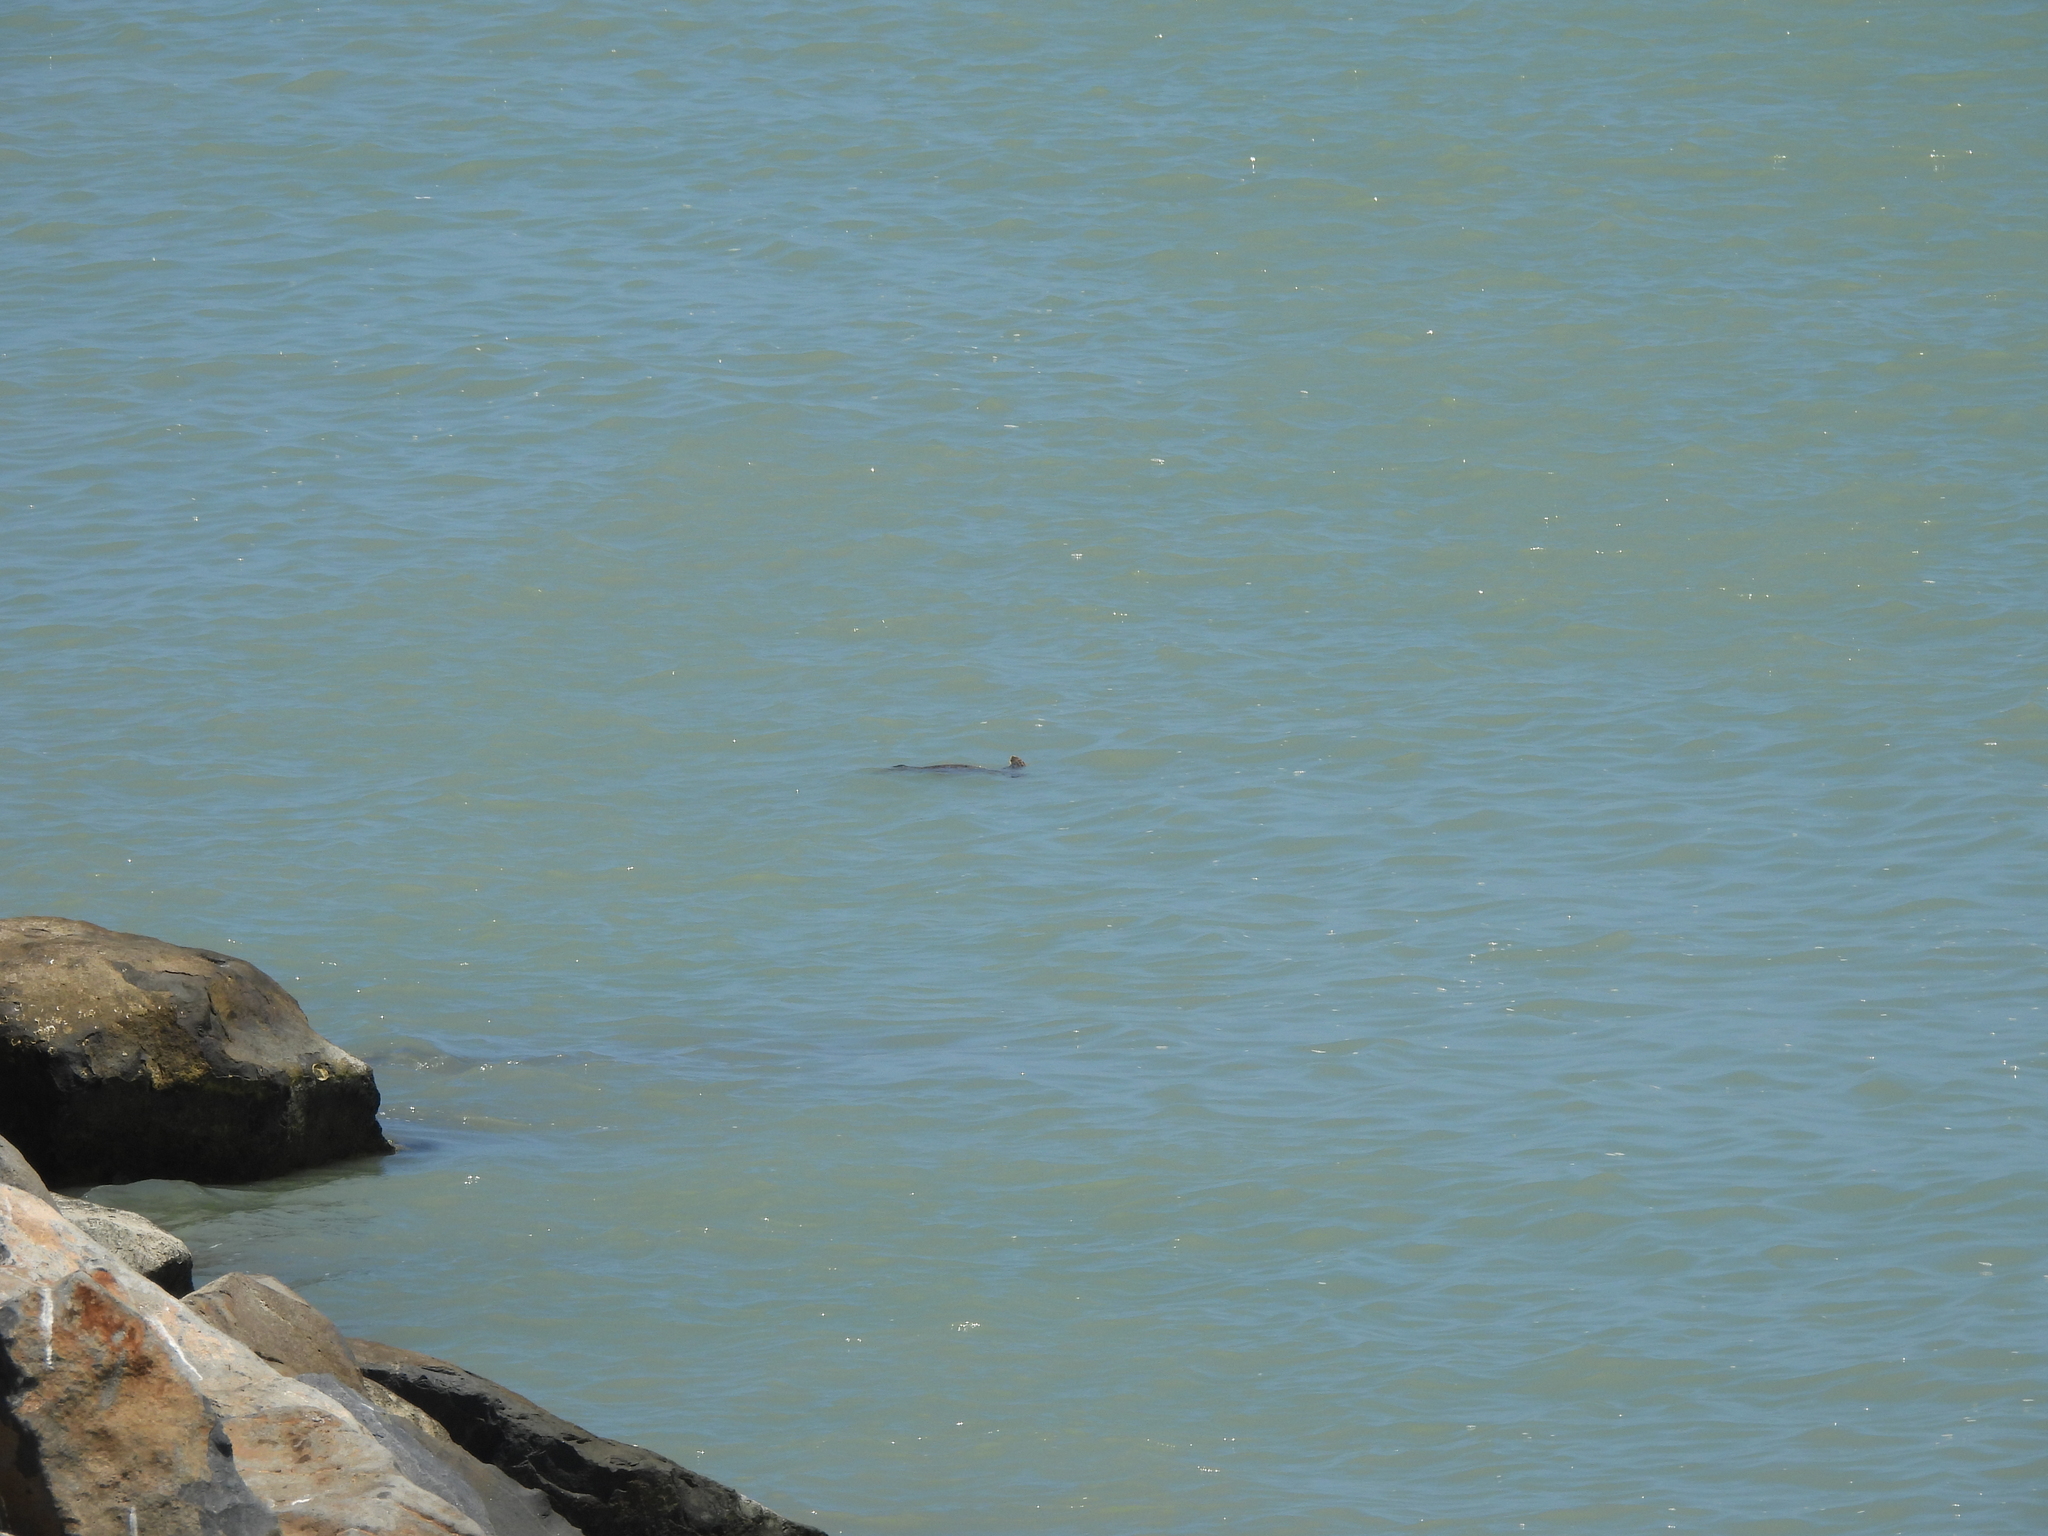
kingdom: Animalia
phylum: Chordata
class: Testudines
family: Cheloniidae
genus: Chelonia
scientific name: Chelonia mydas
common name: Green turtle
